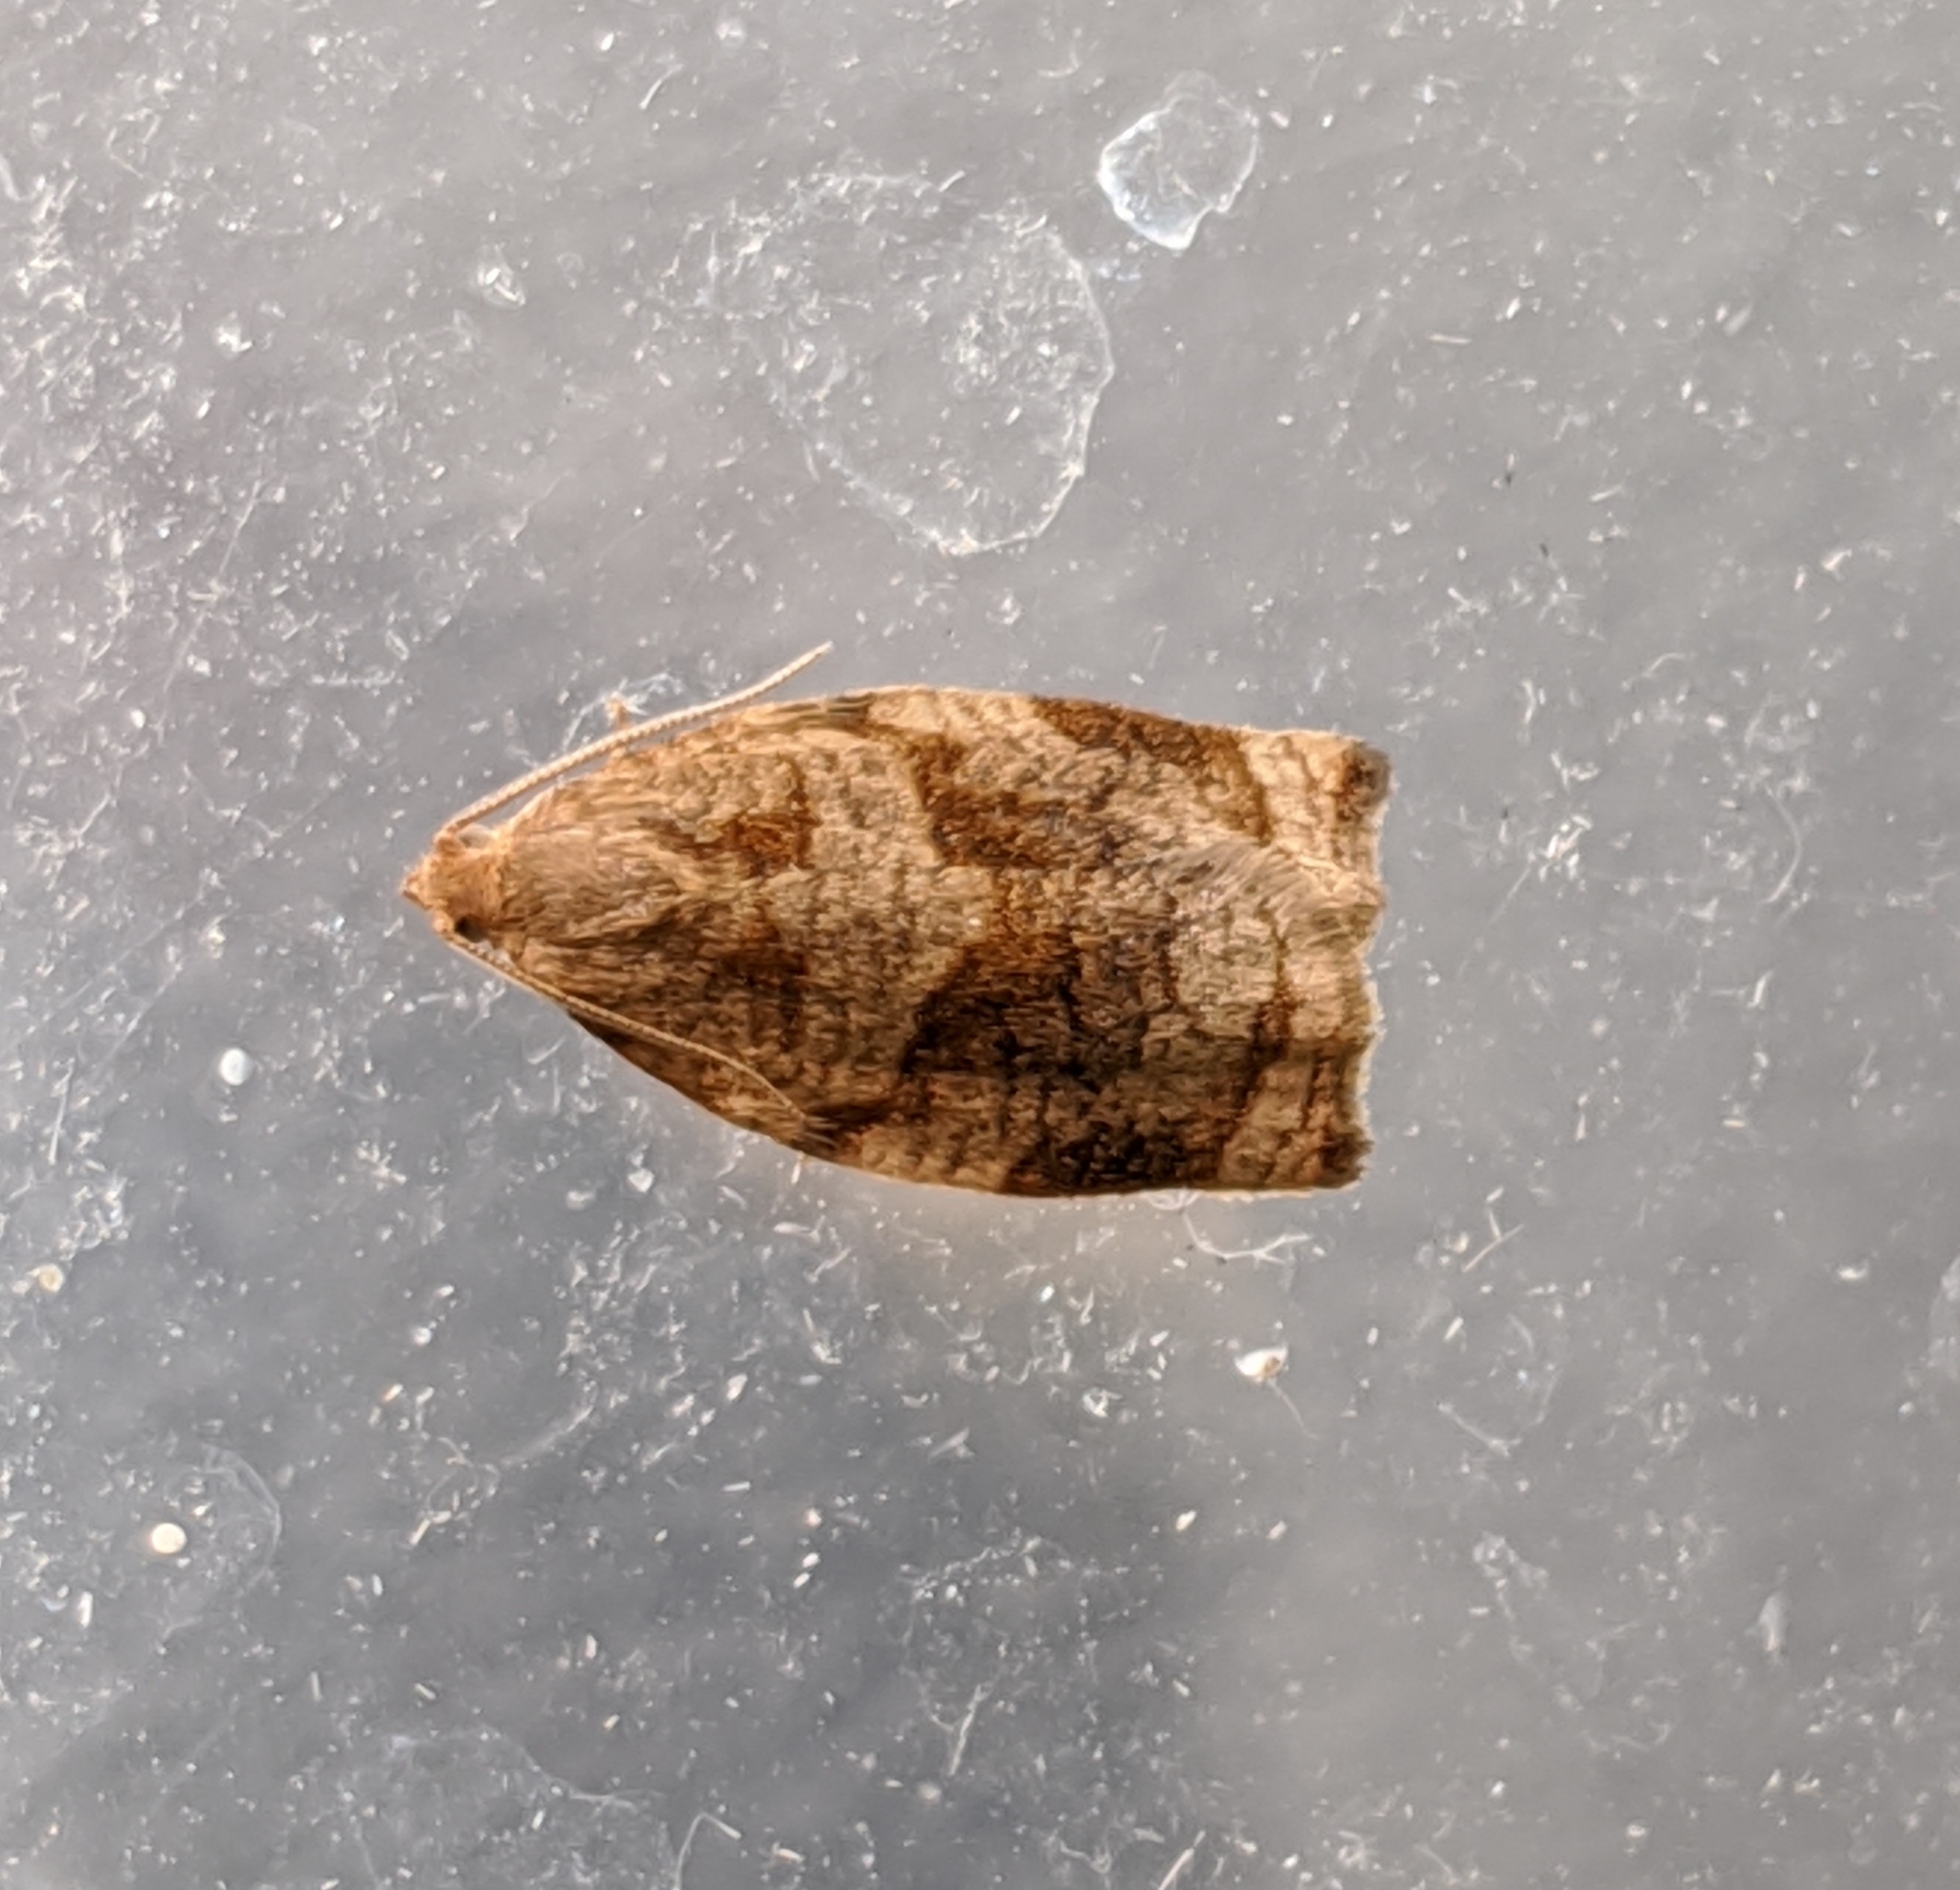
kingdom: Animalia
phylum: Arthropoda
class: Insecta
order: Lepidoptera
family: Tortricidae
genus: Archips
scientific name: Archips rosana
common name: Rose tortrix
